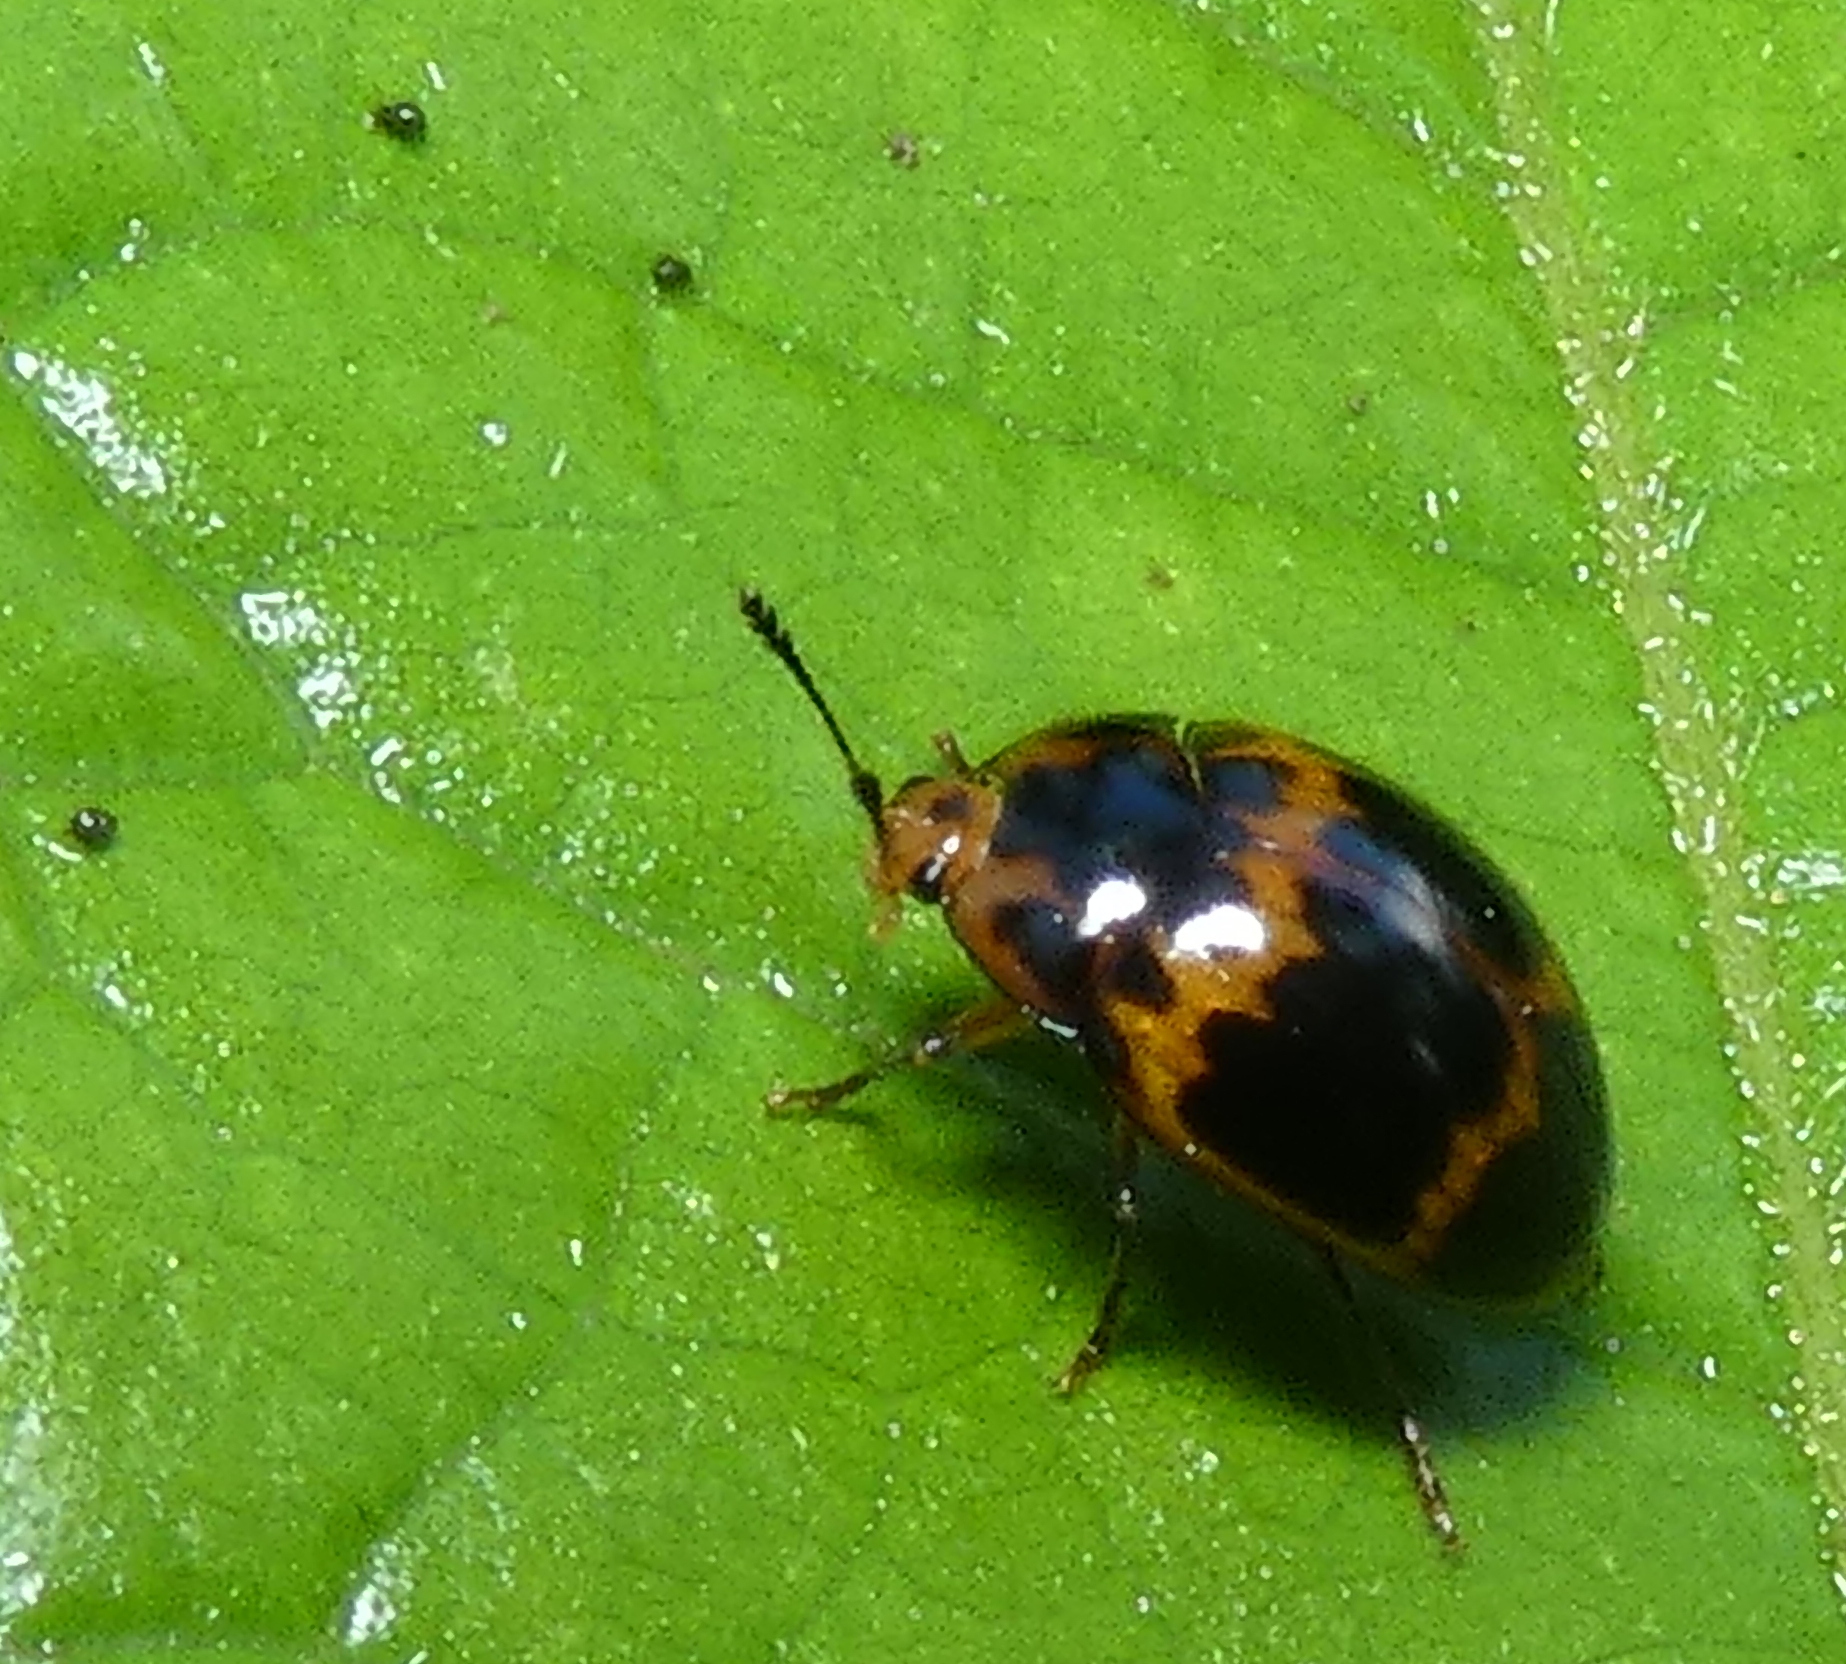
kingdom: Animalia
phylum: Arthropoda
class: Insecta
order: Coleoptera
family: Erotylidae
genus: Iphiclus
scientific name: Iphiclus
